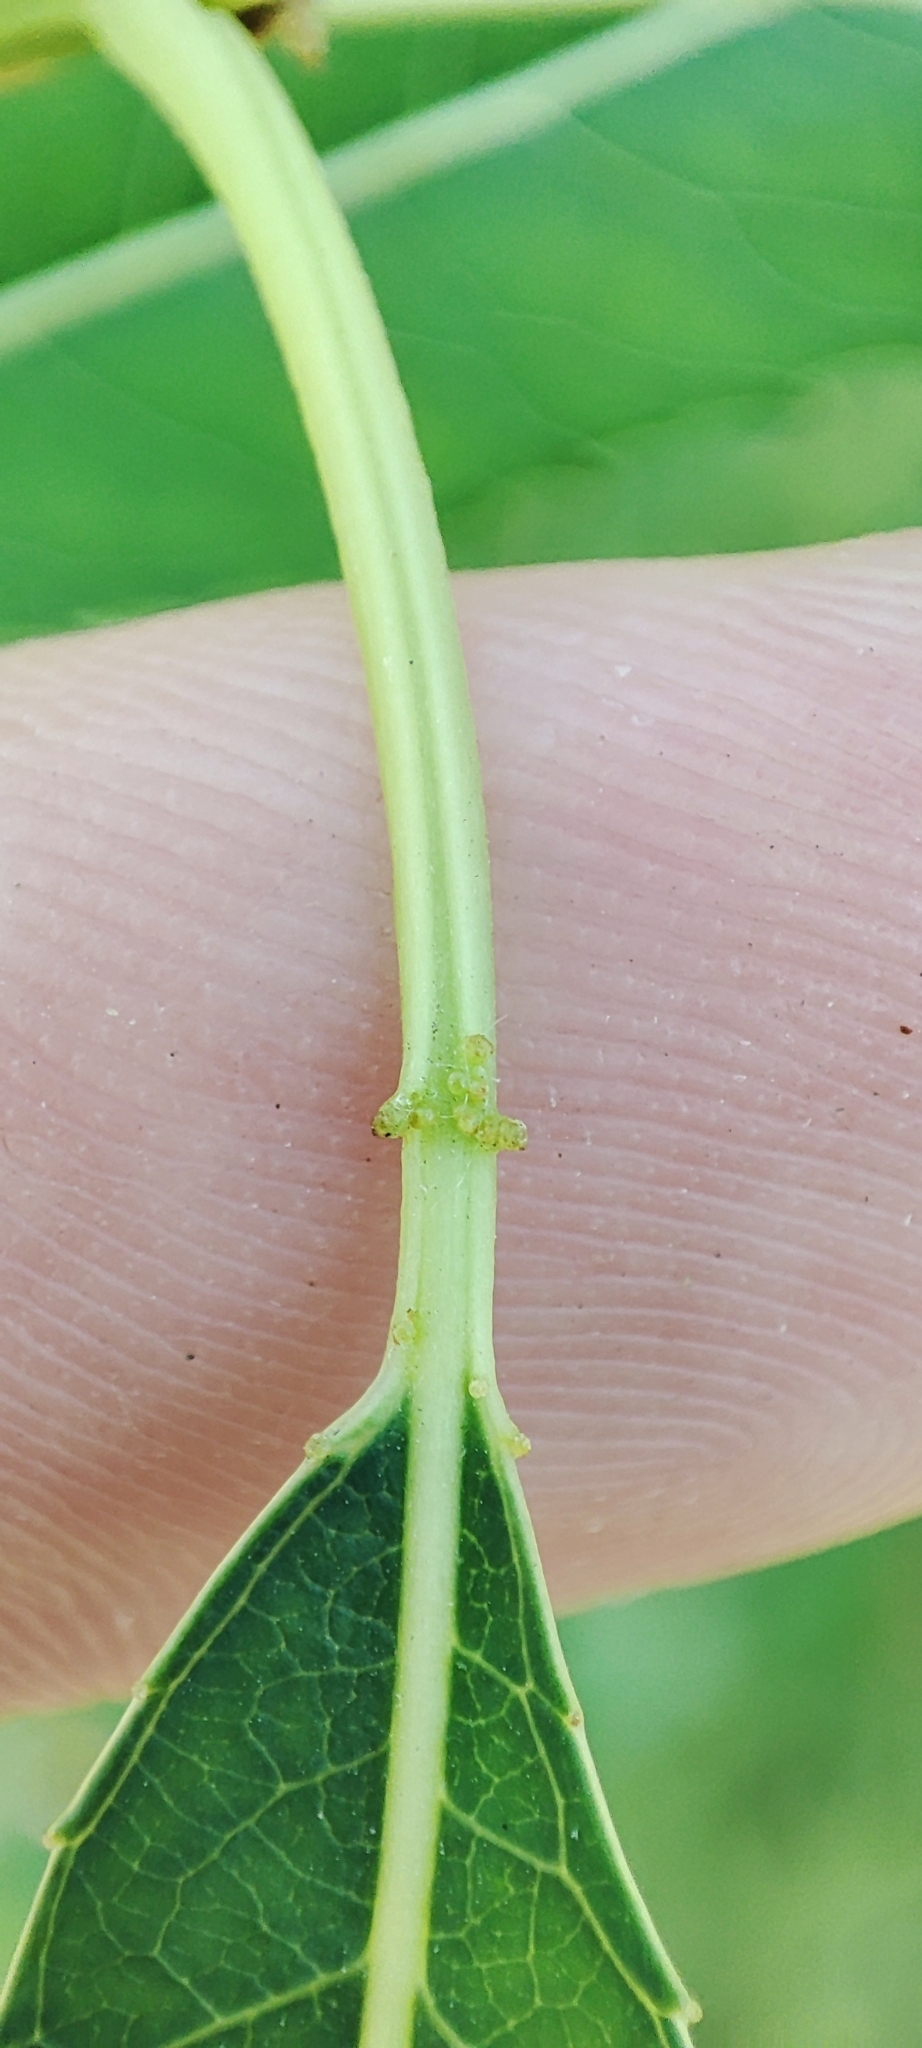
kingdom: Plantae
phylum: Tracheophyta
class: Magnoliopsida
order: Malpighiales
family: Salicaceae
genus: Salix
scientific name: Salix triandra
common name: Almond willow
